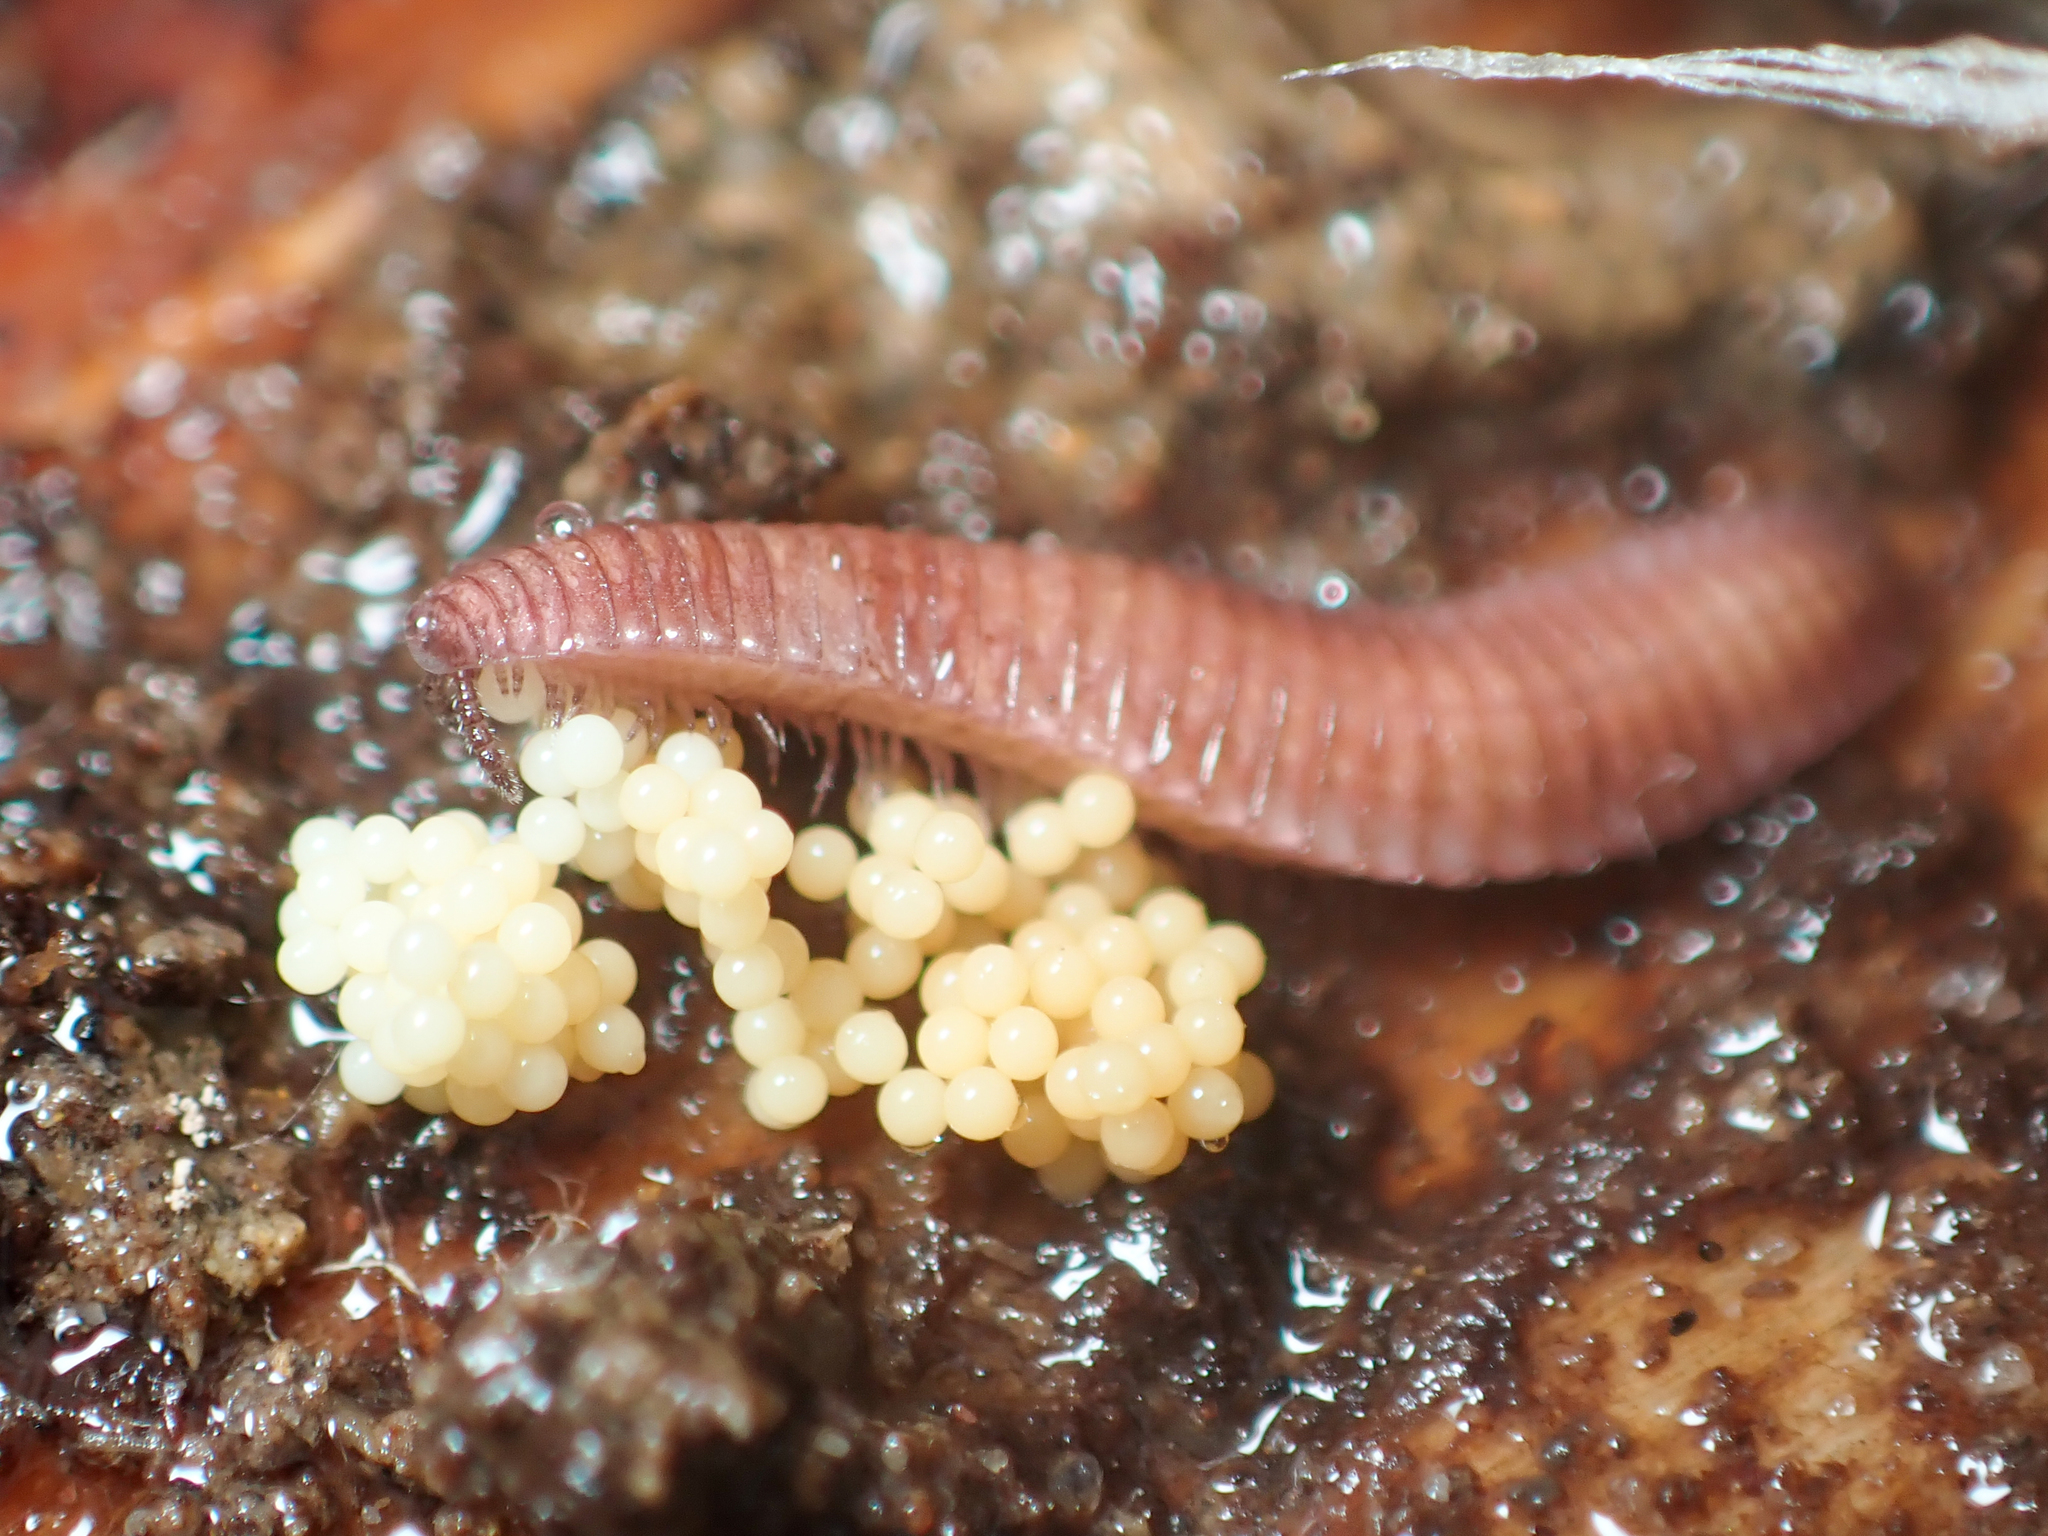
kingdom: Animalia
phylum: Arthropoda
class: Diplopoda
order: Polyzoniida
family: Hirudisomatidae
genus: Octoglena
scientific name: Octoglena gracilipes
